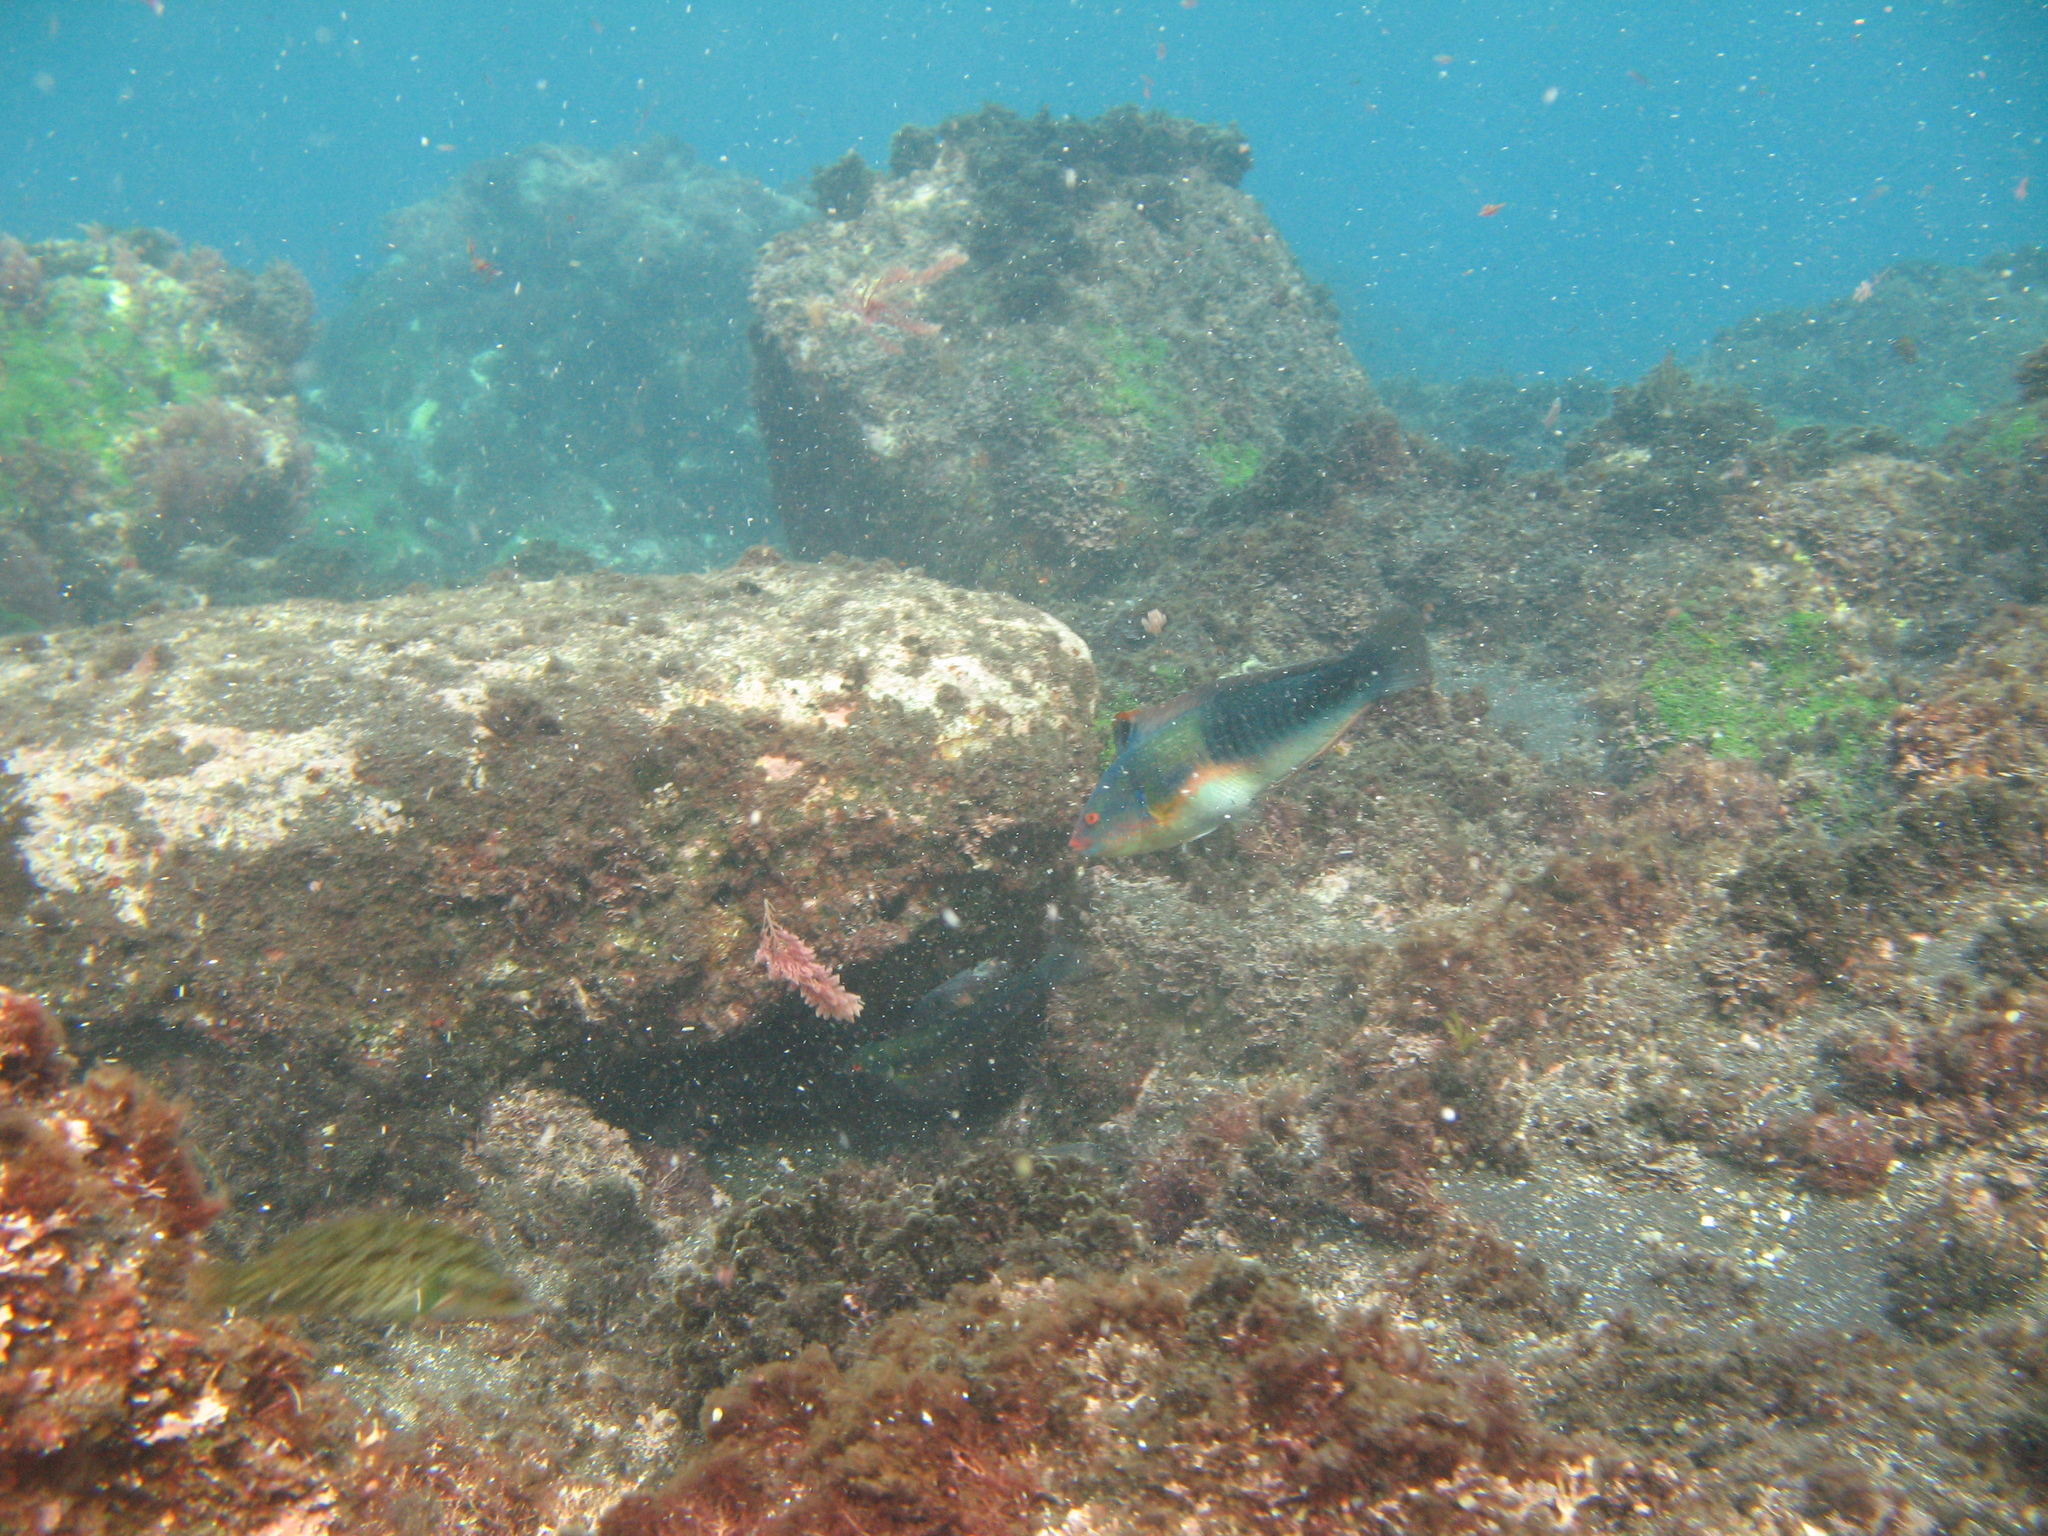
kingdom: Animalia
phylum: Chordata
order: Perciformes
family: Labridae
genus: Coris
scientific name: Coris
